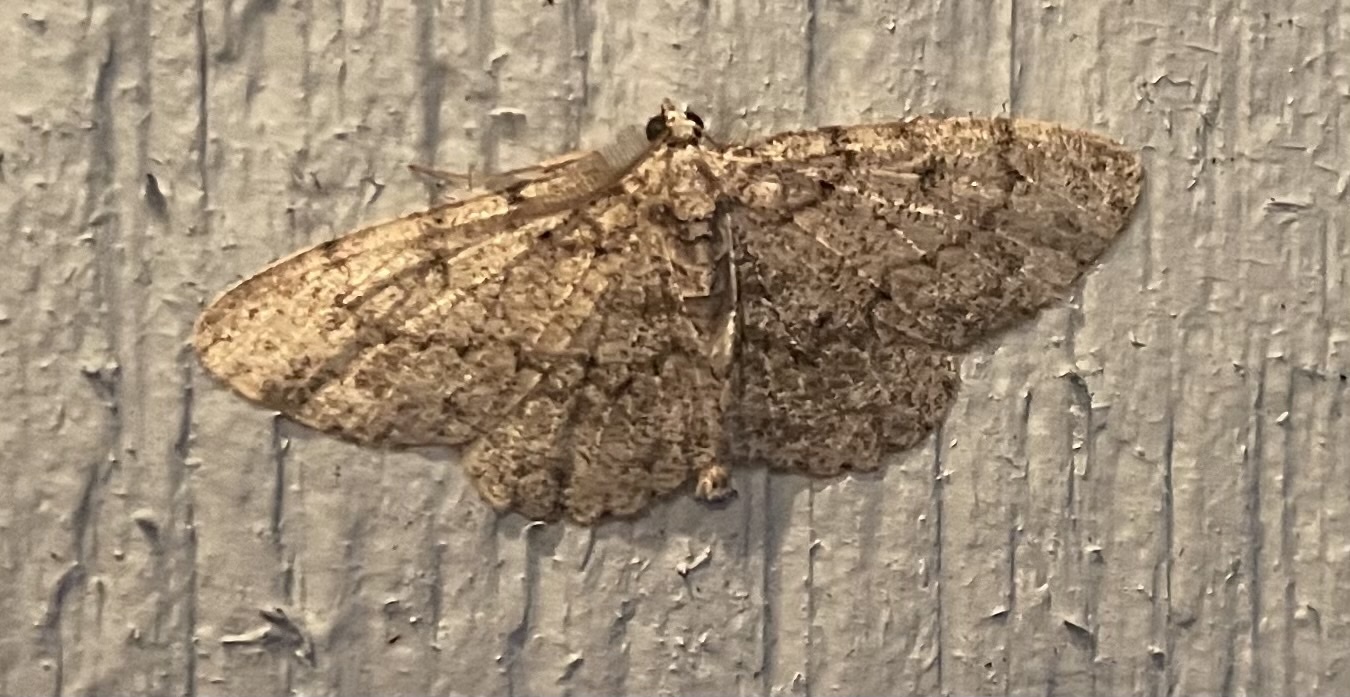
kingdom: Animalia
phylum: Arthropoda
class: Insecta
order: Lepidoptera
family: Geometridae
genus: Protoboarmia
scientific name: Protoboarmia porcelaria
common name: Porcelain gray
